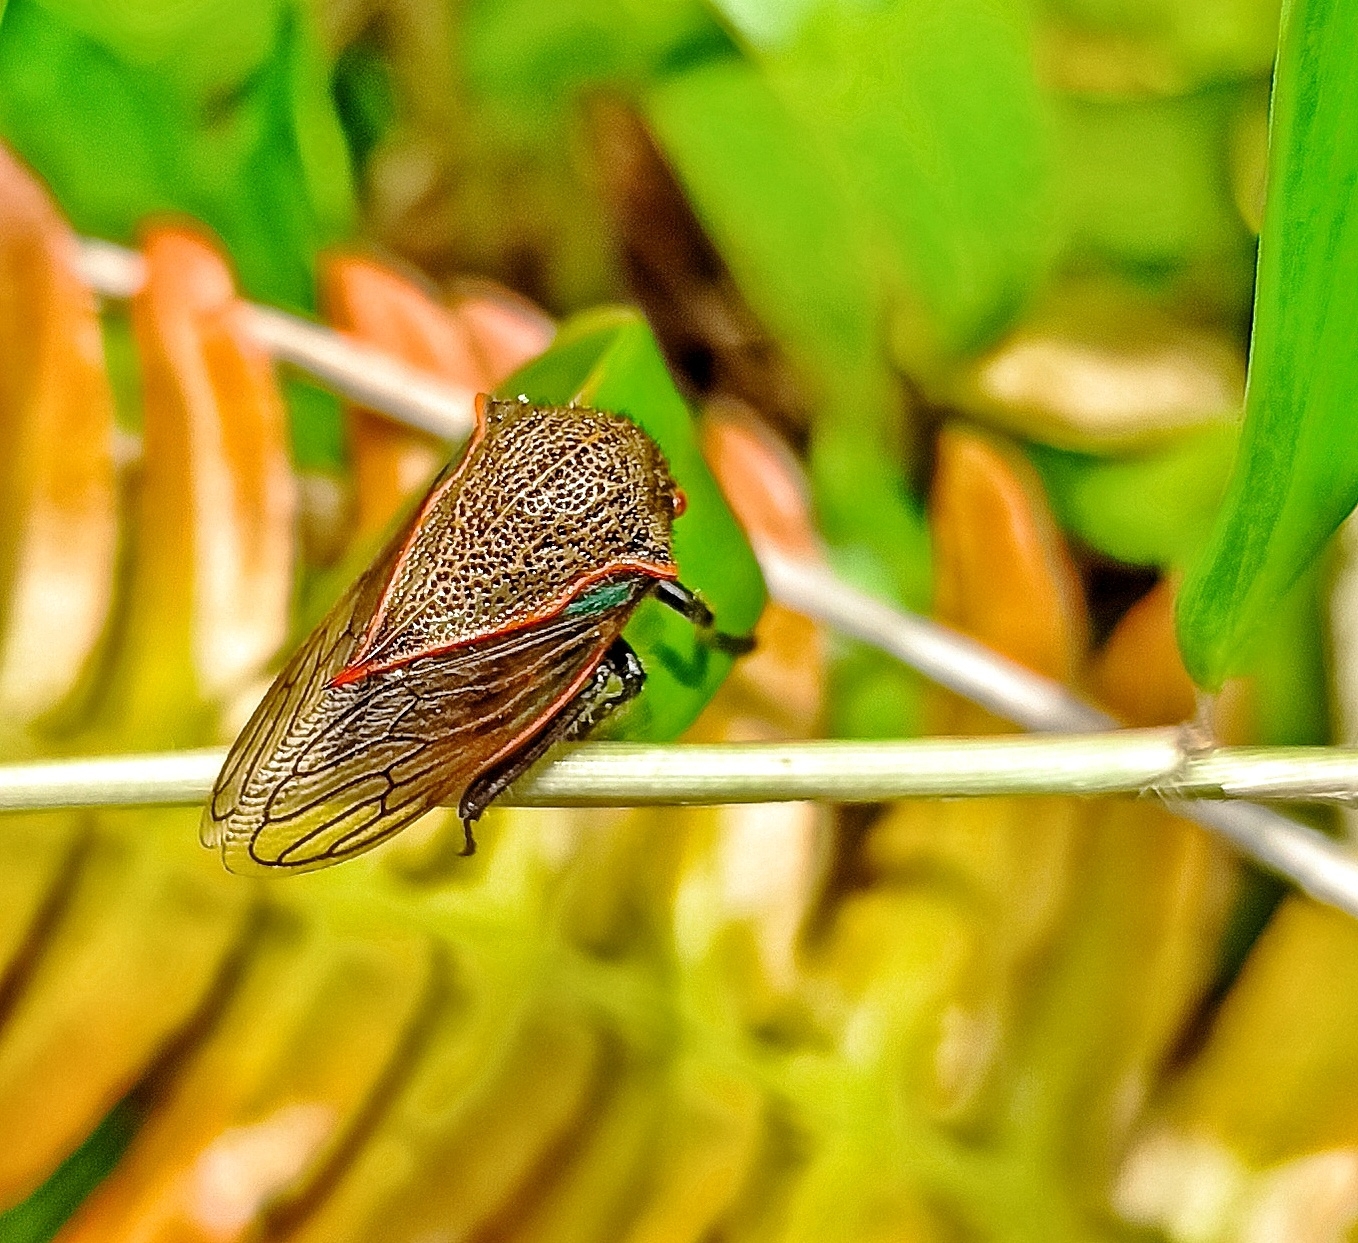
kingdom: Animalia
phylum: Arthropoda
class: Insecta
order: Hemiptera
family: Membracidae
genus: Metcalfiella
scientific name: Metcalfiella erectum
